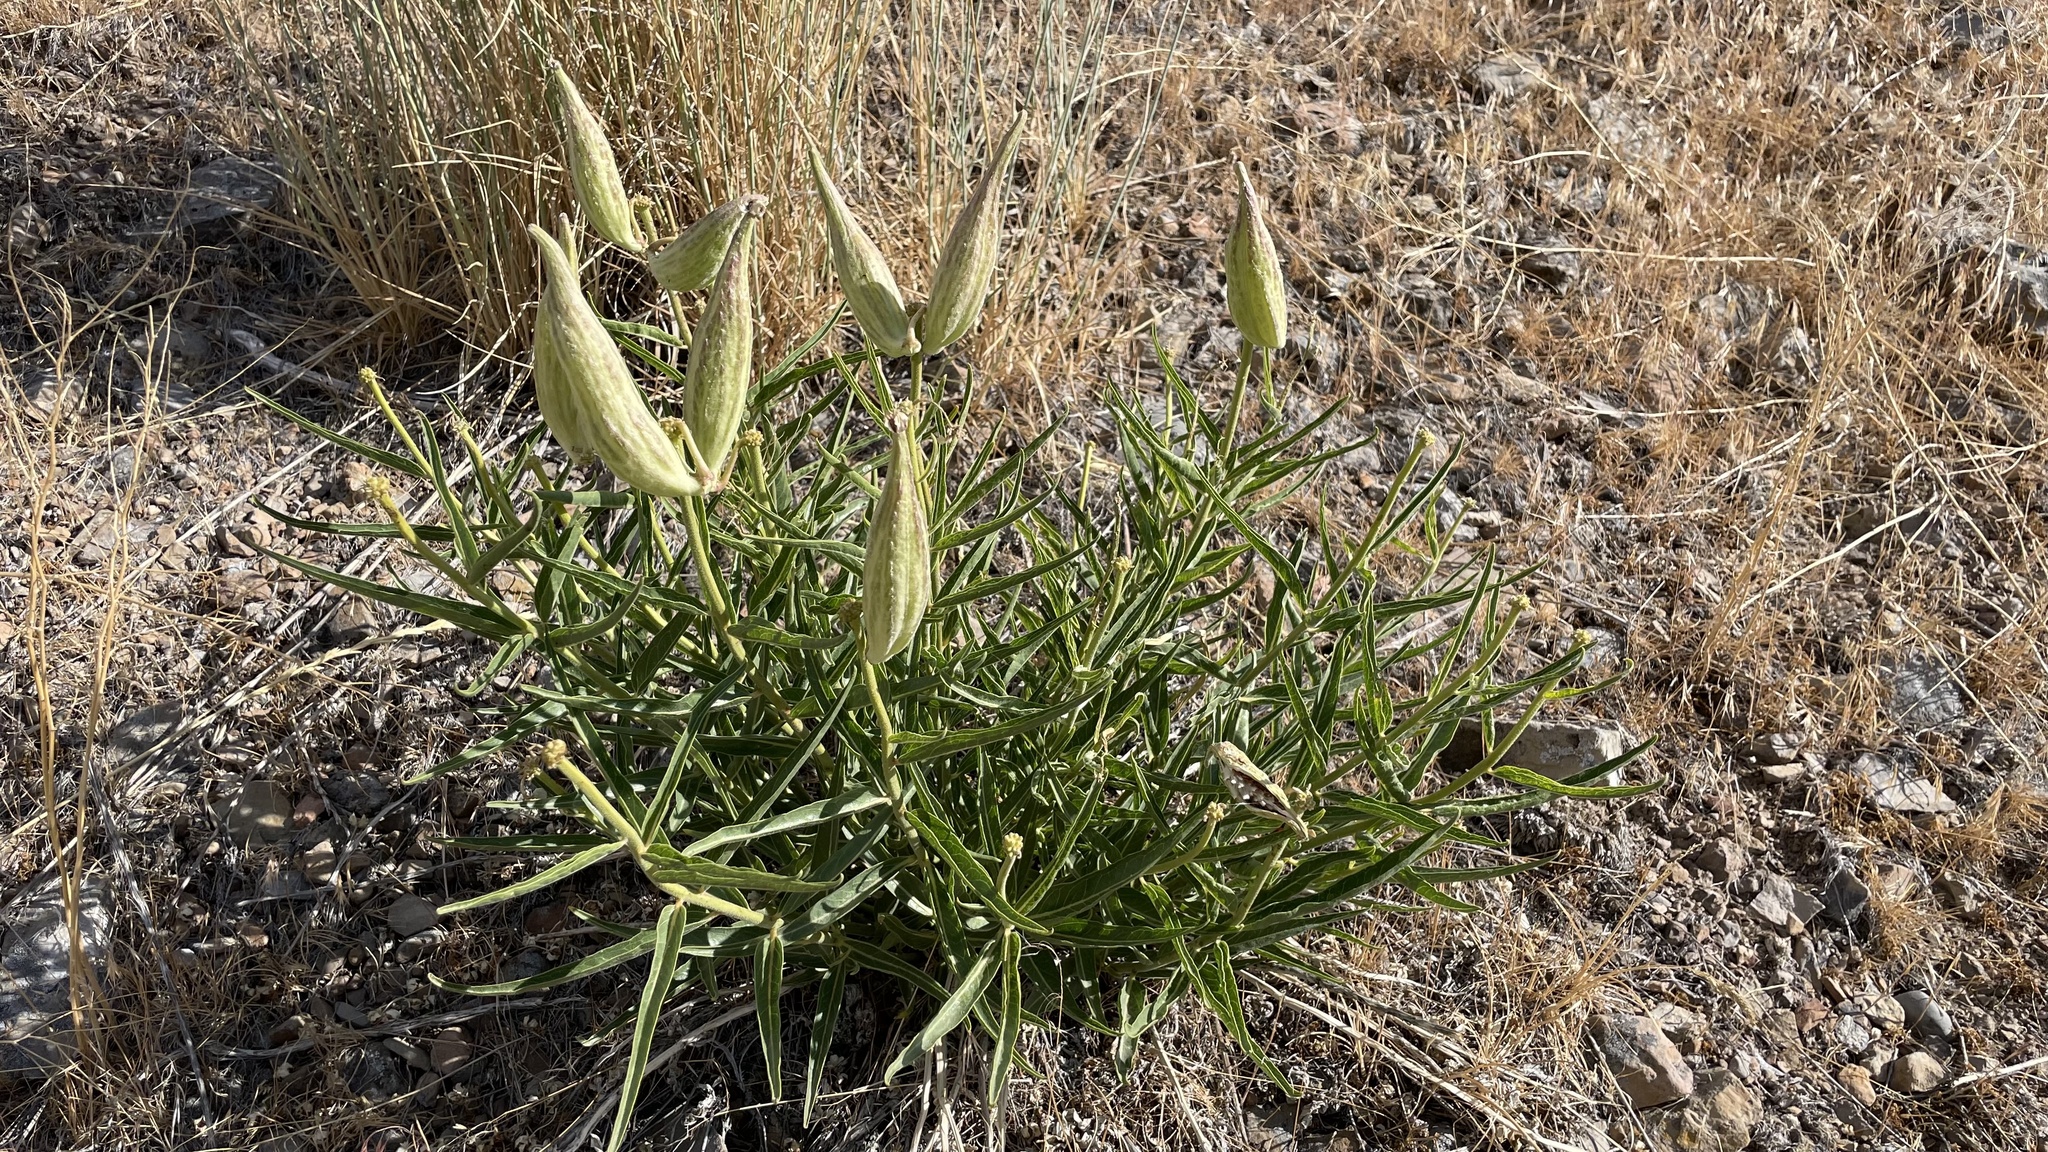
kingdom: Plantae
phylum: Tracheophyta
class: Magnoliopsida
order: Gentianales
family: Apocynaceae
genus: Asclepias
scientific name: Asclepias asperula
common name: Antelope horns
